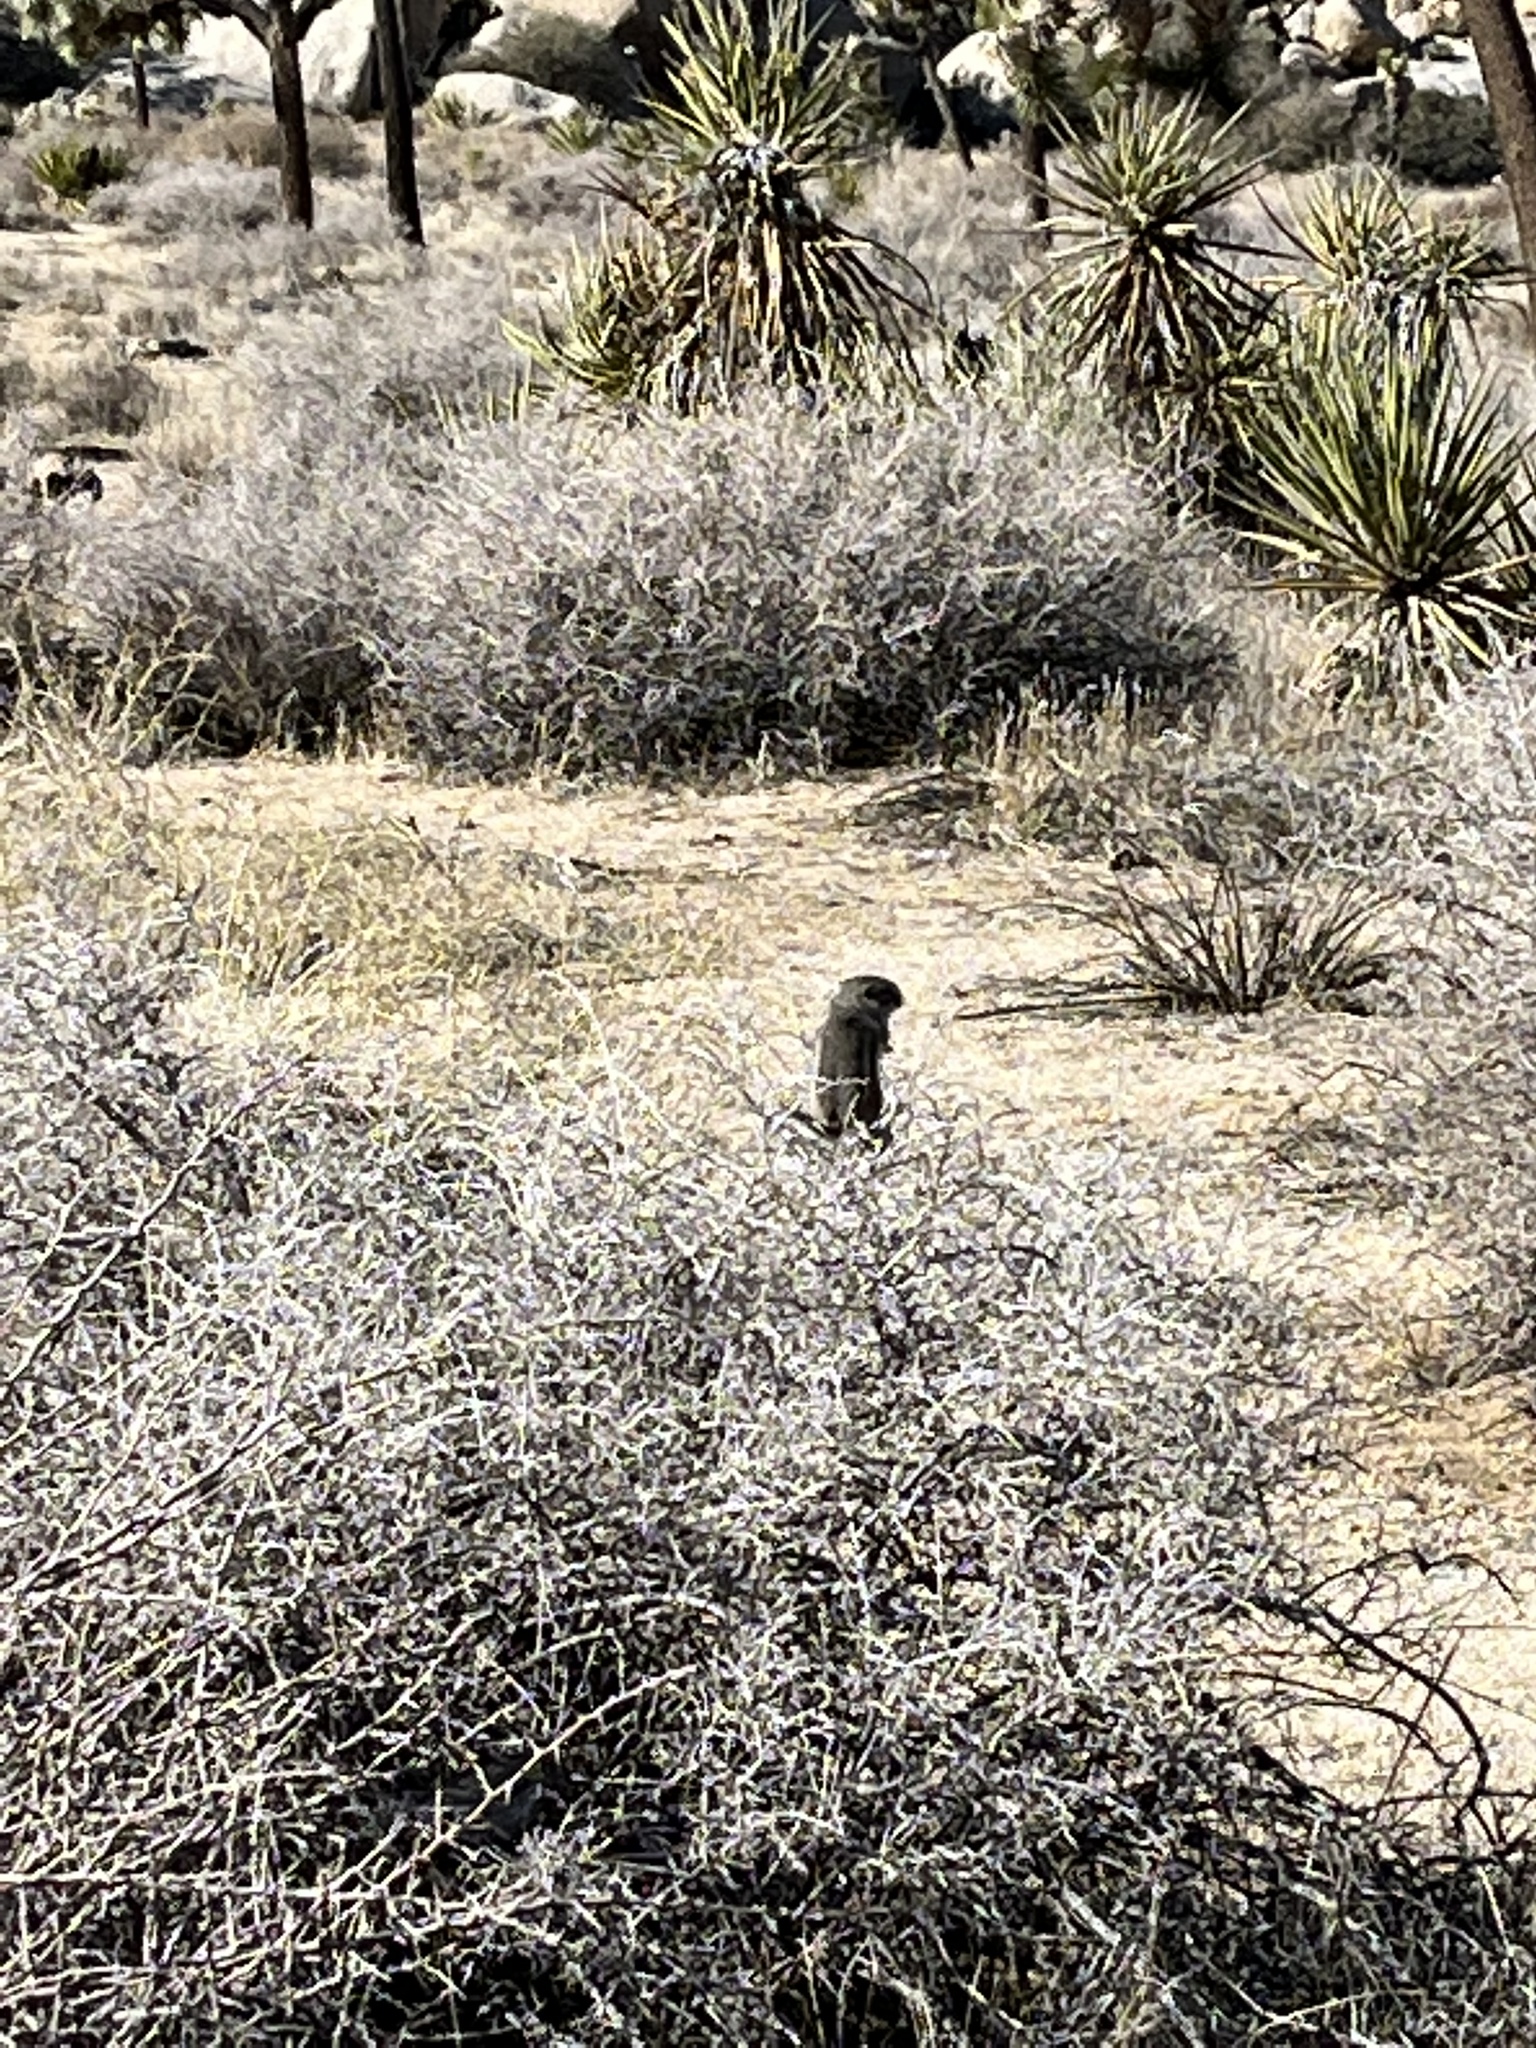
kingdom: Animalia
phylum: Chordata
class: Mammalia
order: Rodentia
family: Sciuridae
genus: Ammospermophilus
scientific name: Ammospermophilus leucurus
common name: White-tailed antelope squirrel
